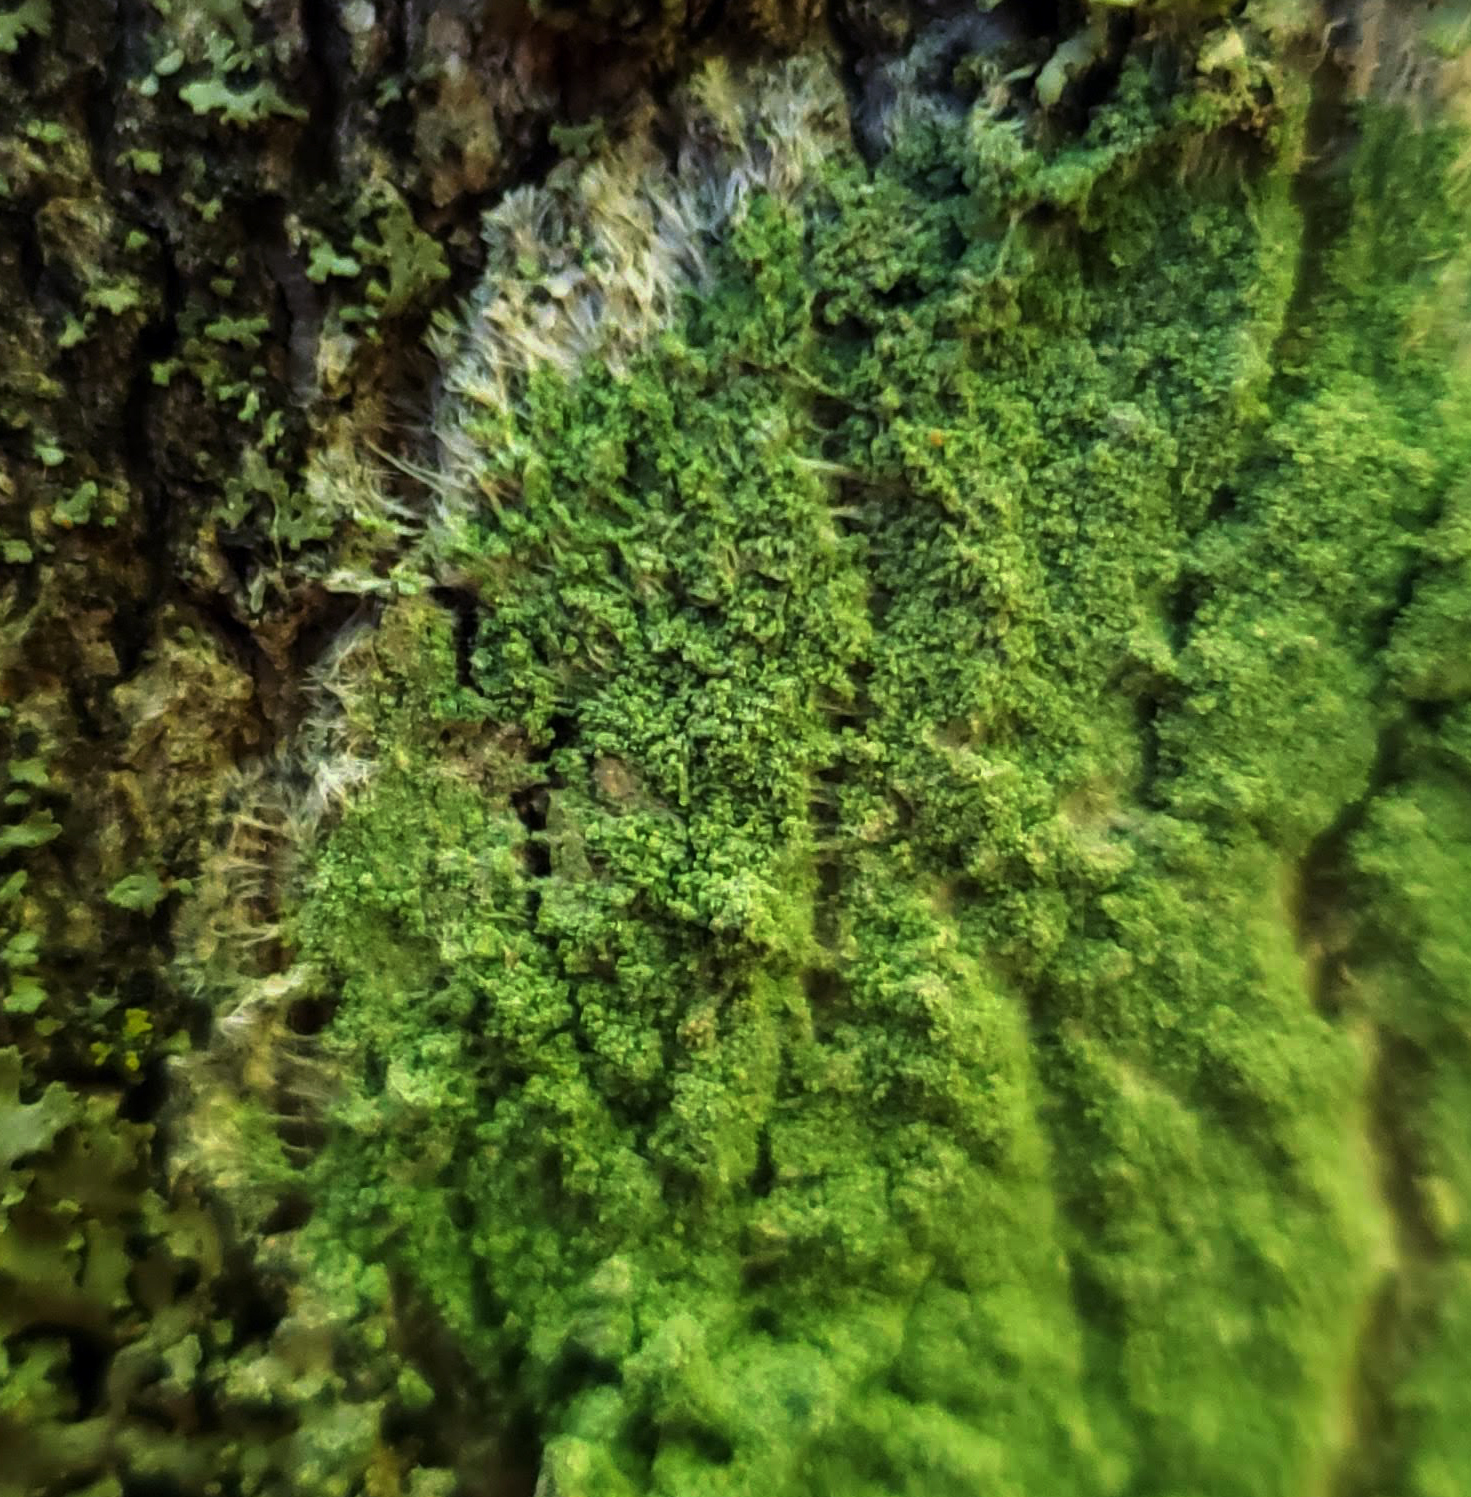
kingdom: Fungi
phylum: Ascomycota
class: Lecanoromycetes
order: Pertusariales
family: Pertusariaceae
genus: Verseghya
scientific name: Verseghya thysanophora
